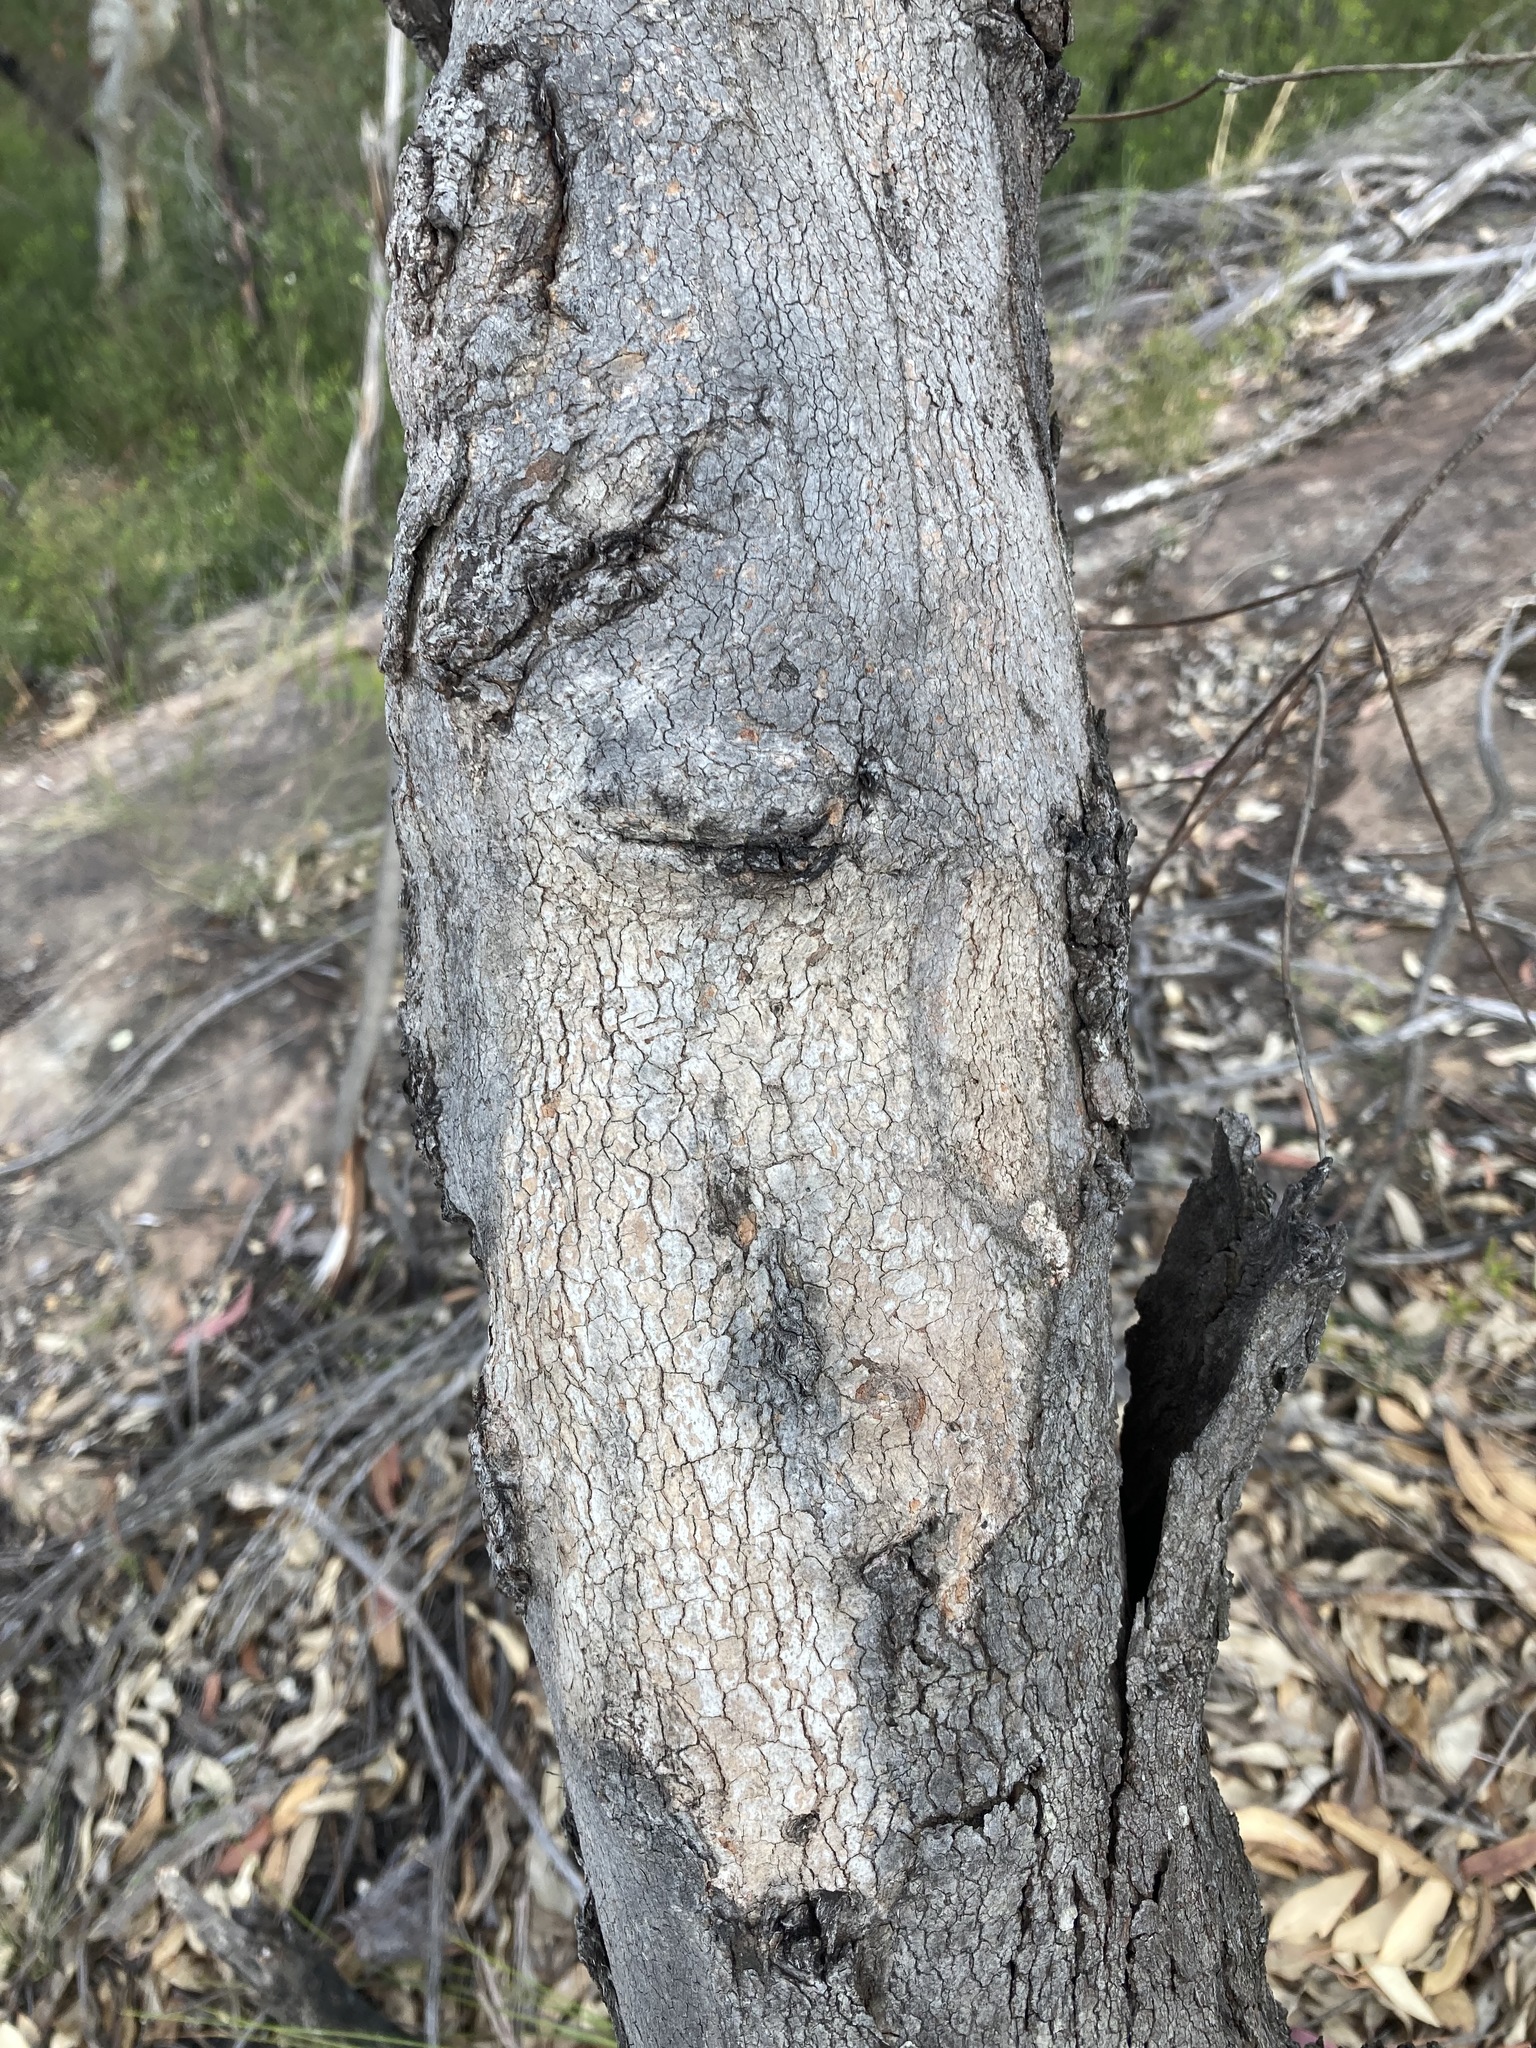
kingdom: Plantae
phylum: Tracheophyta
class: Magnoliopsida
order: Myrtales
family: Myrtaceae
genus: Eucalyptus
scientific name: Eucalyptus punctata
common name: Gray gum
